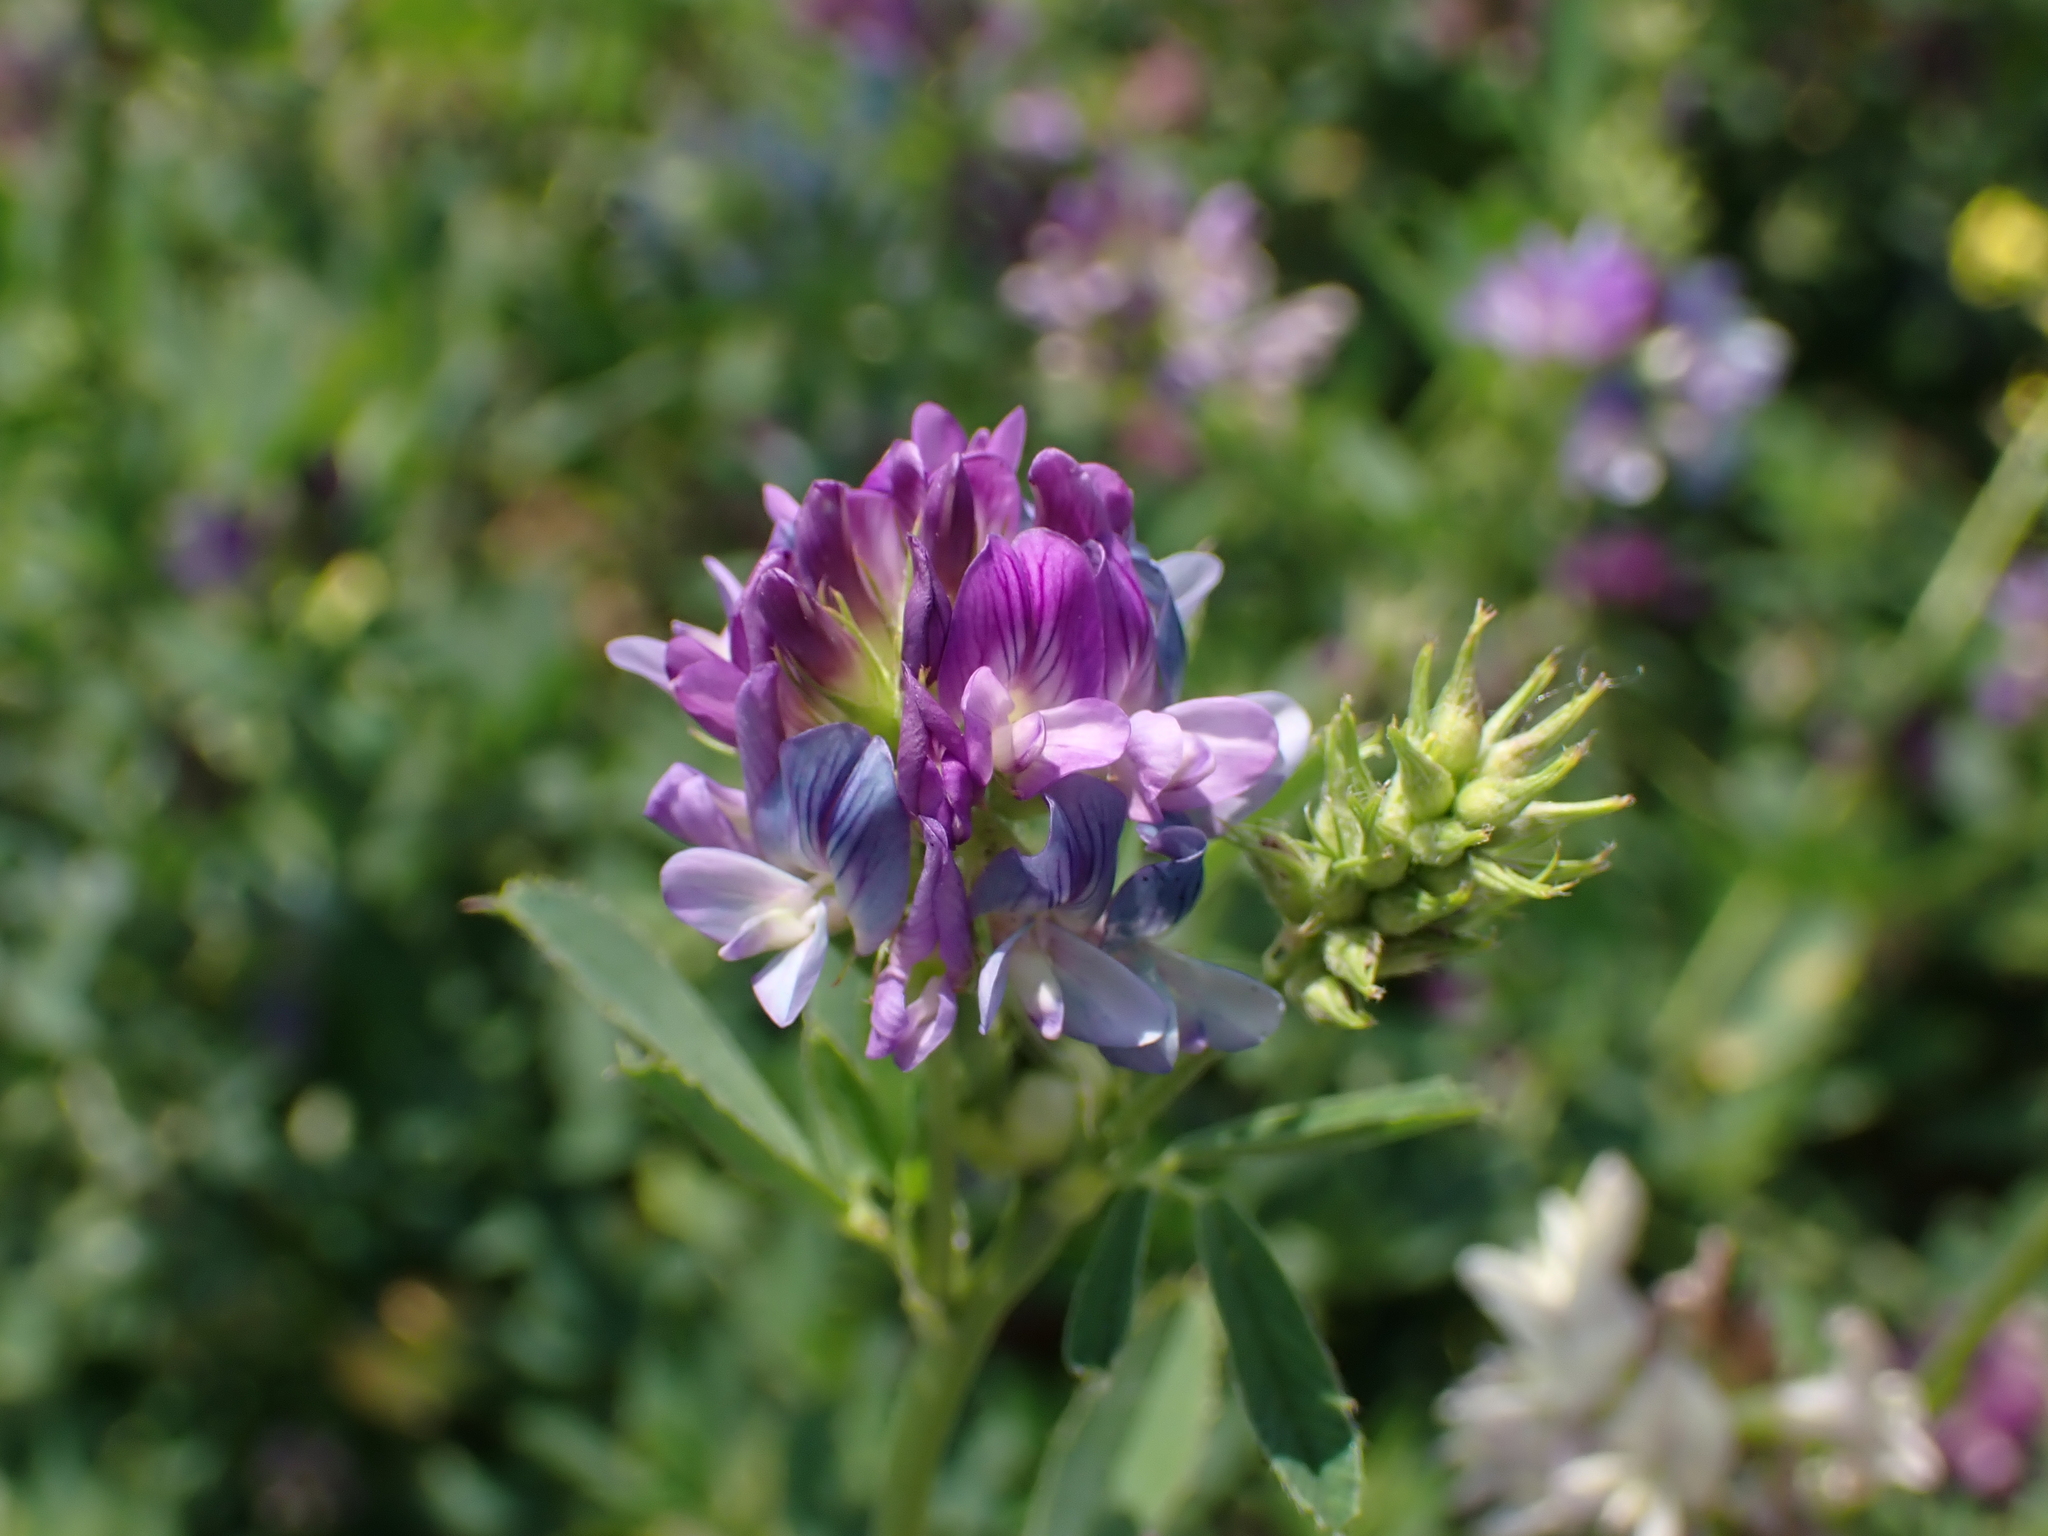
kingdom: Plantae
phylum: Tracheophyta
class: Magnoliopsida
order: Fabales
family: Fabaceae
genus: Medicago
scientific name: Medicago varia
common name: Sand lucerne
